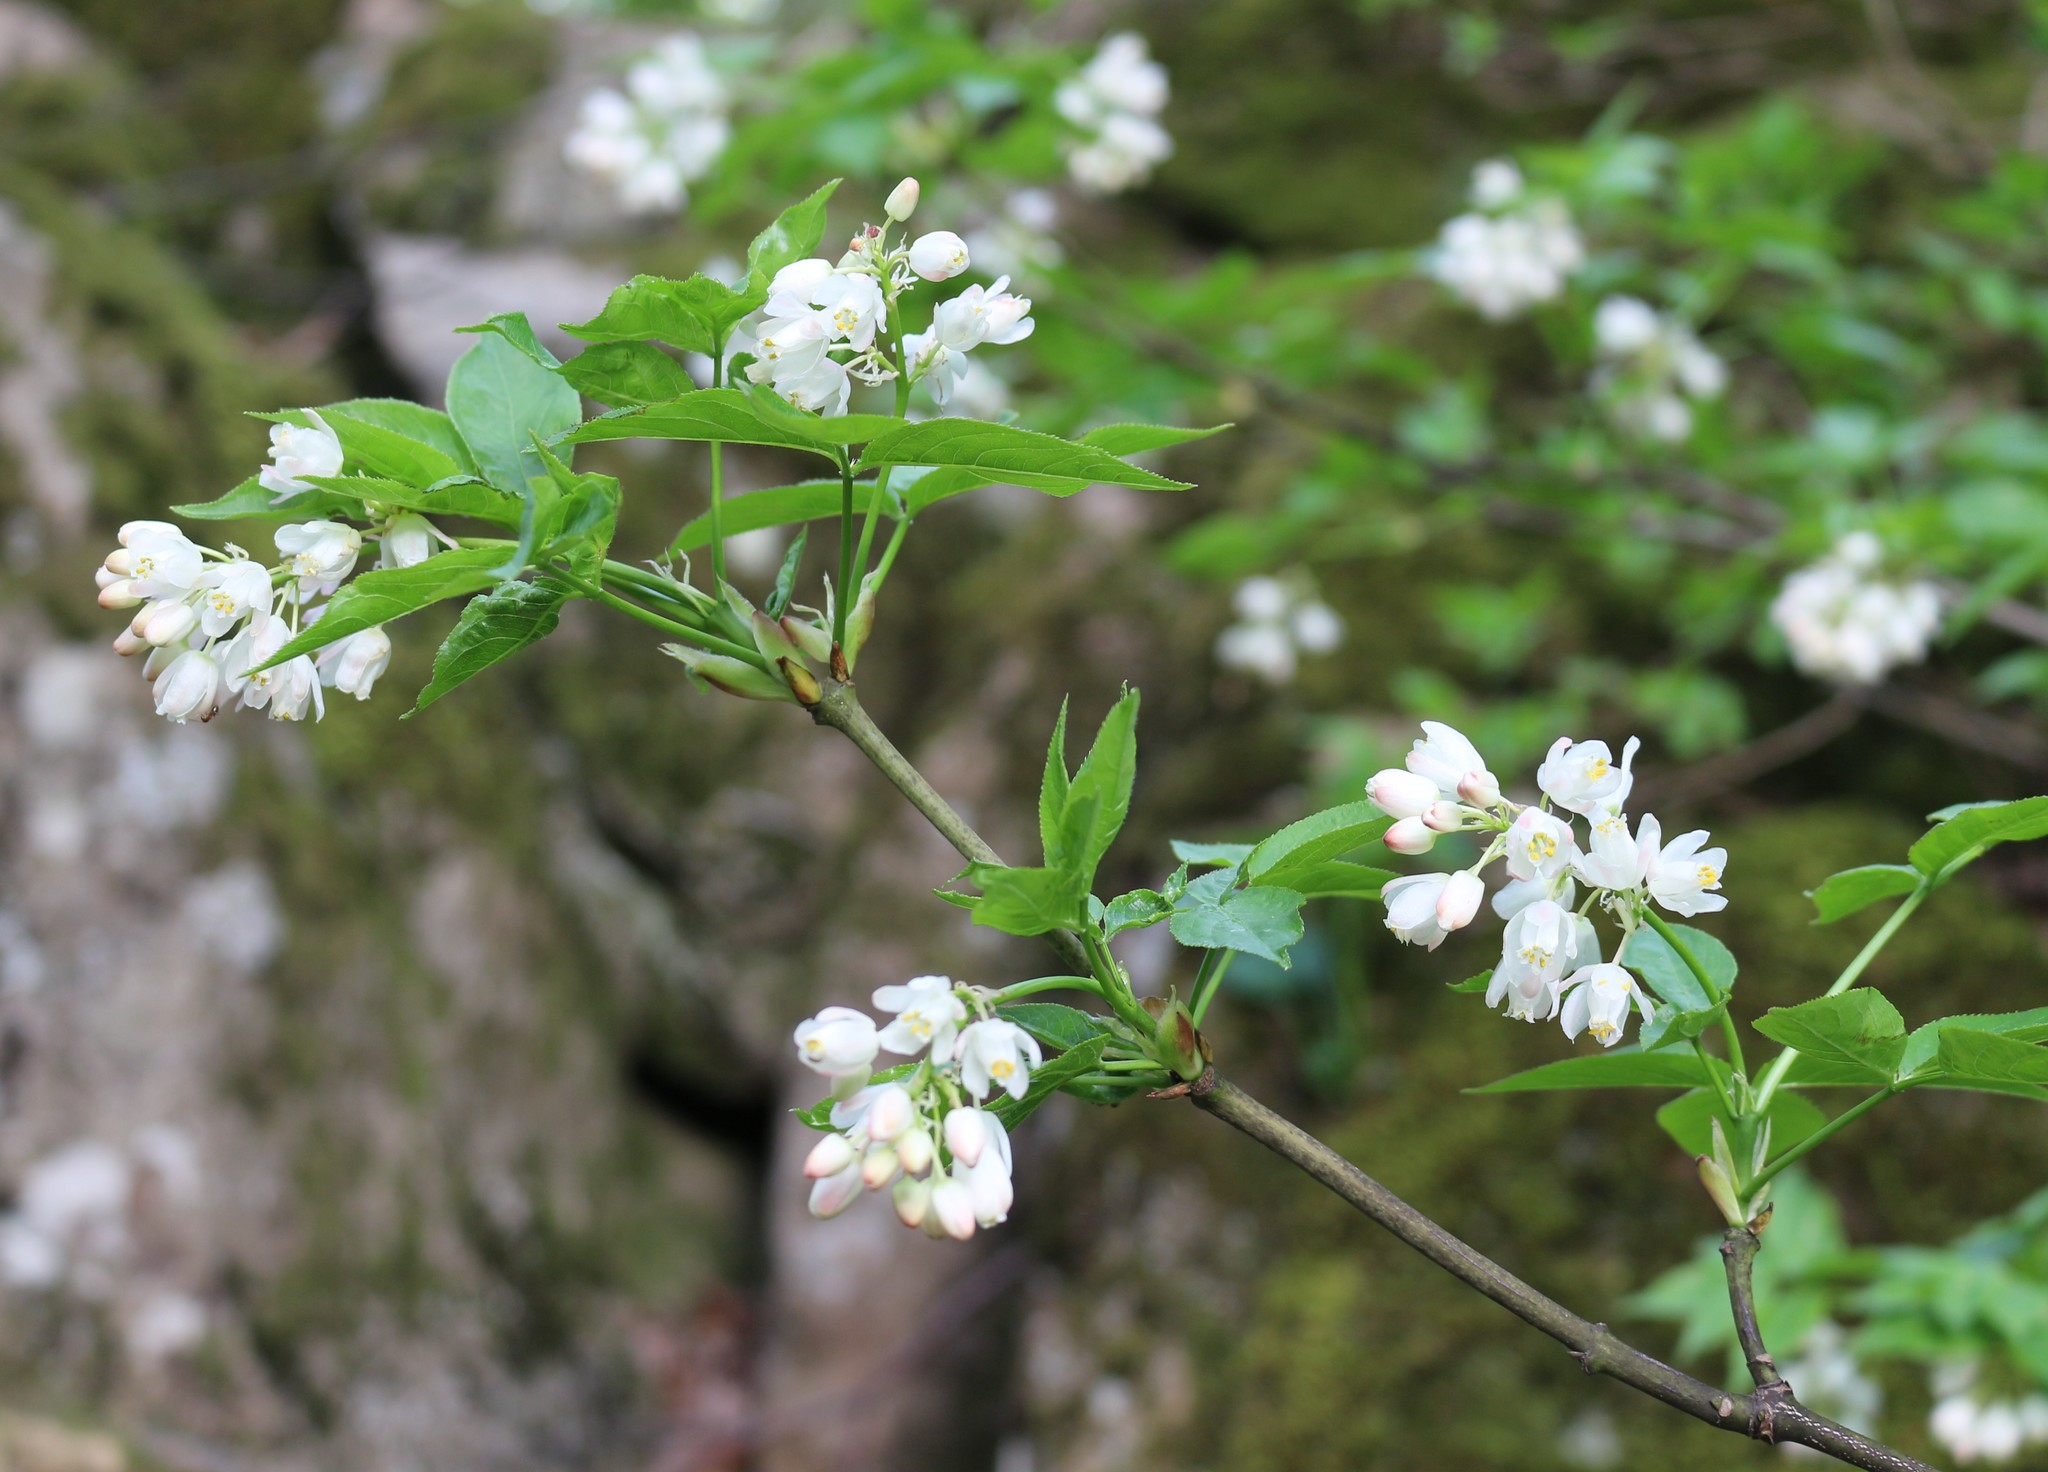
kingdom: Plantae
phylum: Tracheophyta
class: Magnoliopsida
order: Crossosomatales
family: Staphyleaceae
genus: Staphylea
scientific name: Staphylea colchica
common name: Caucasian bladdernut
